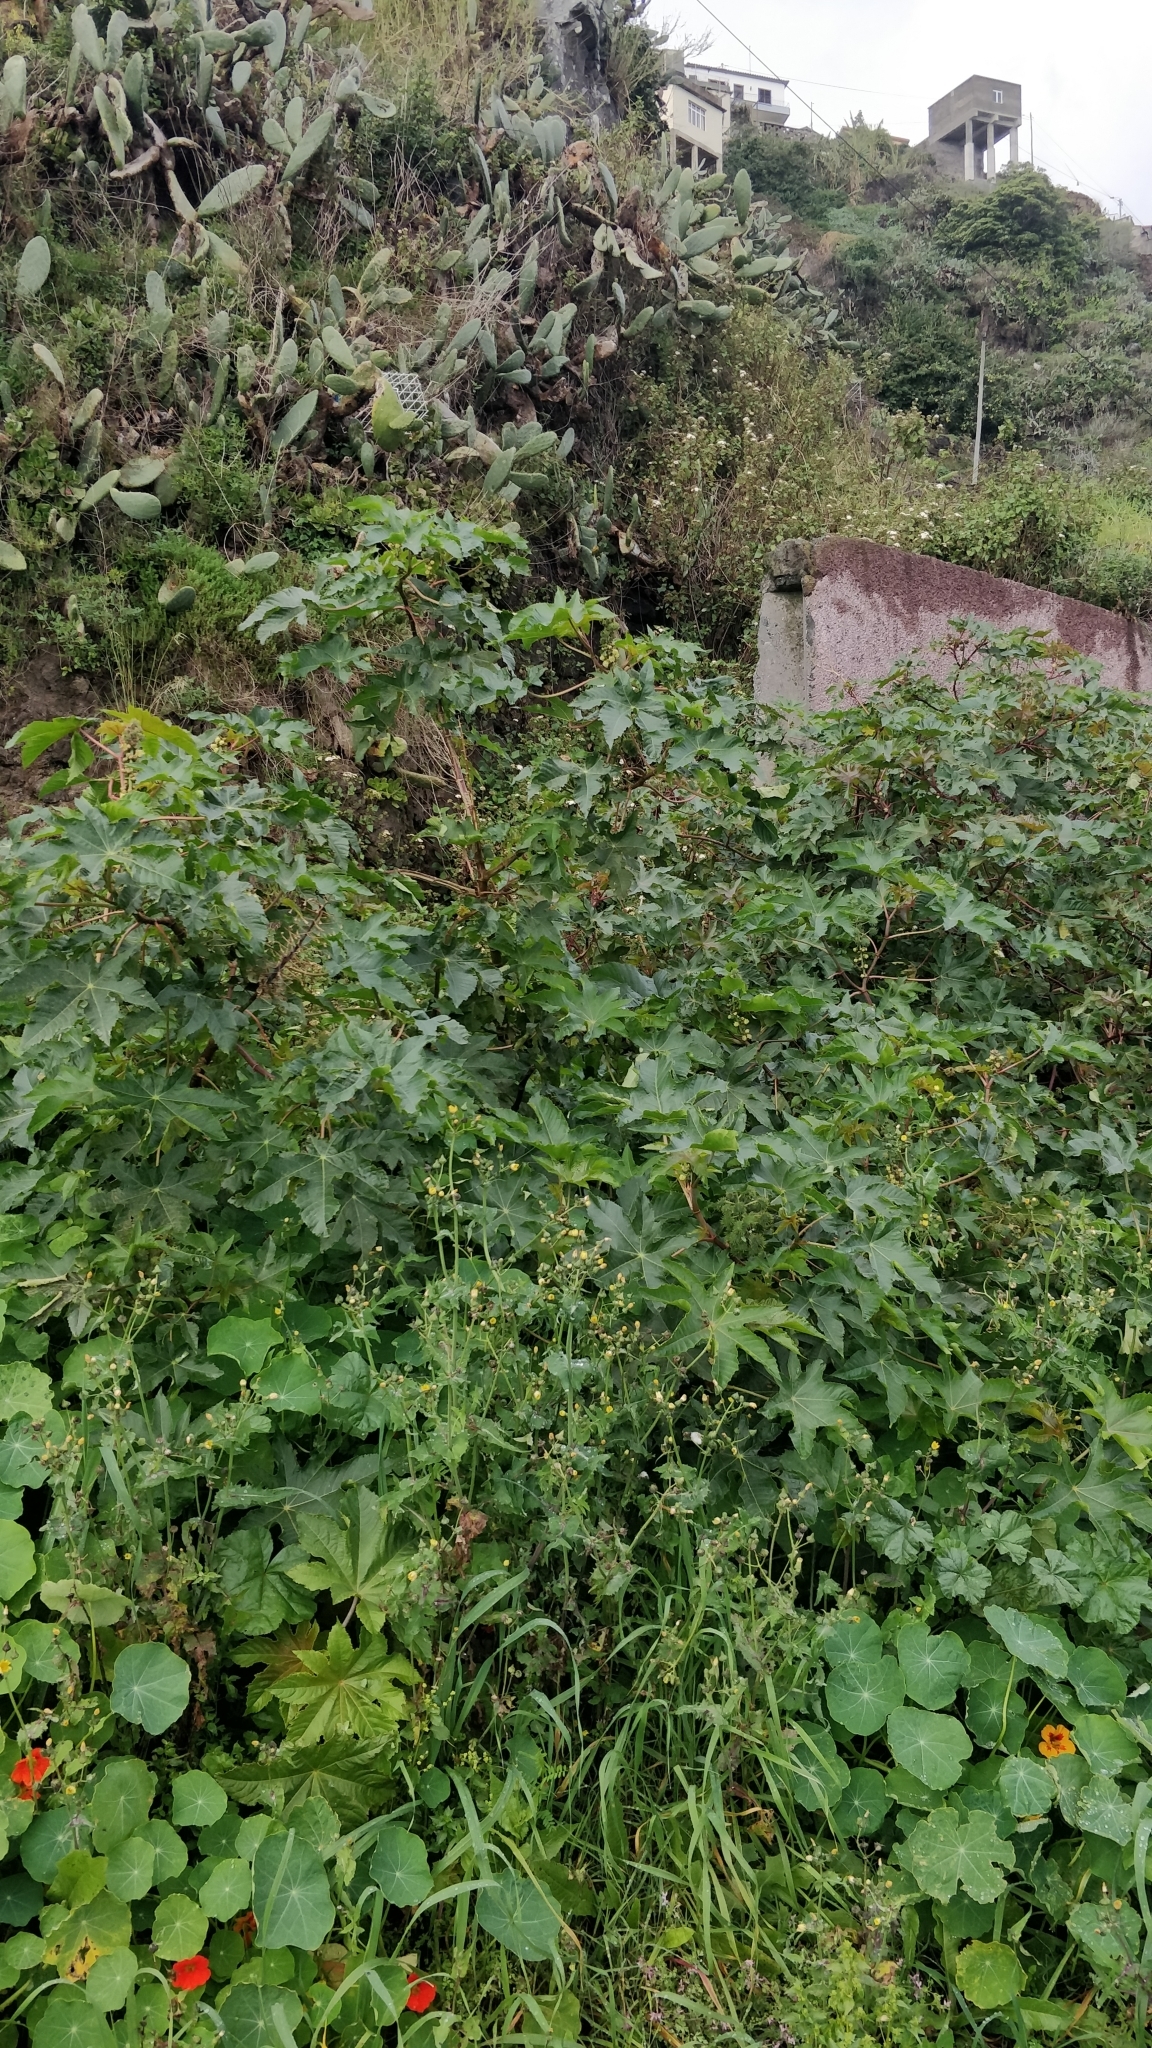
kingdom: Plantae
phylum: Tracheophyta
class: Magnoliopsida
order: Malpighiales
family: Euphorbiaceae
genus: Ricinus
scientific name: Ricinus communis
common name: Castor-oil-plant
